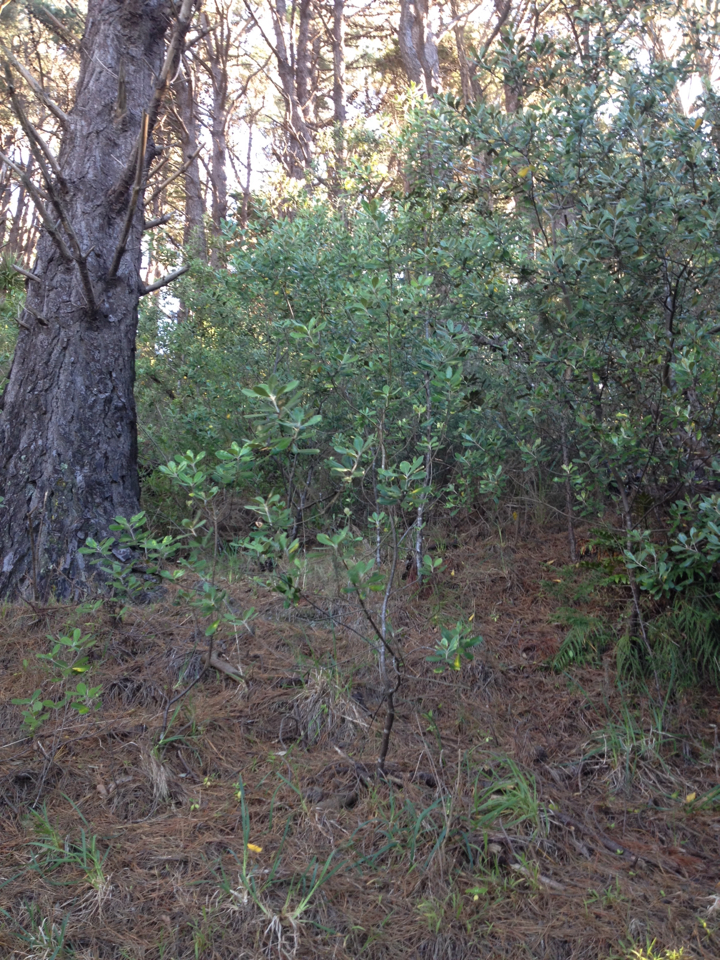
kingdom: Plantae
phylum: Tracheophyta
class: Magnoliopsida
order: Apiales
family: Pittosporaceae
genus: Pittosporum
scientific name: Pittosporum crassifolium
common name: Karo
